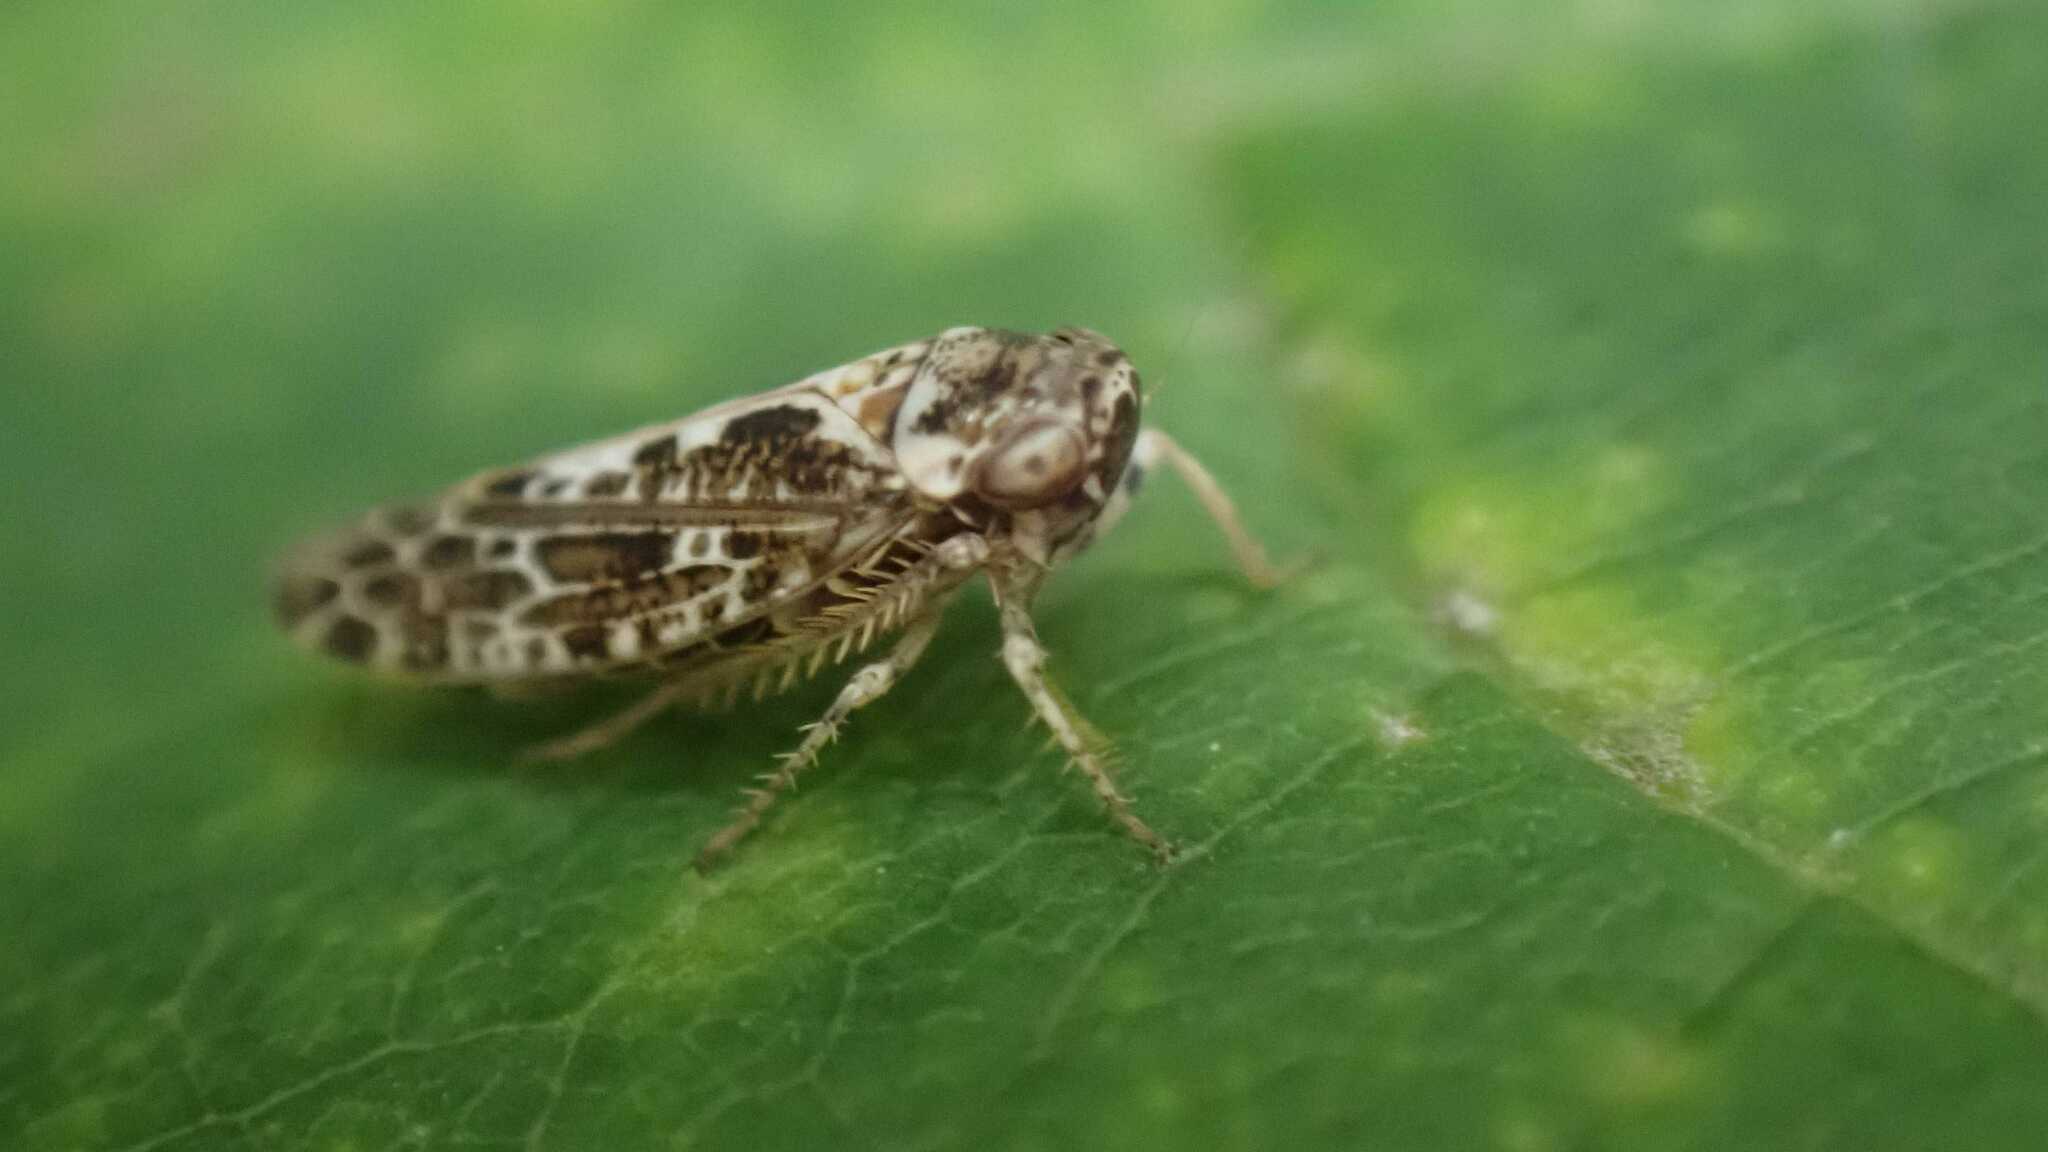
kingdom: Animalia
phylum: Arthropoda
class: Insecta
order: Hemiptera
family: Cicadellidae
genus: Allygus
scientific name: Allygus maculatus
